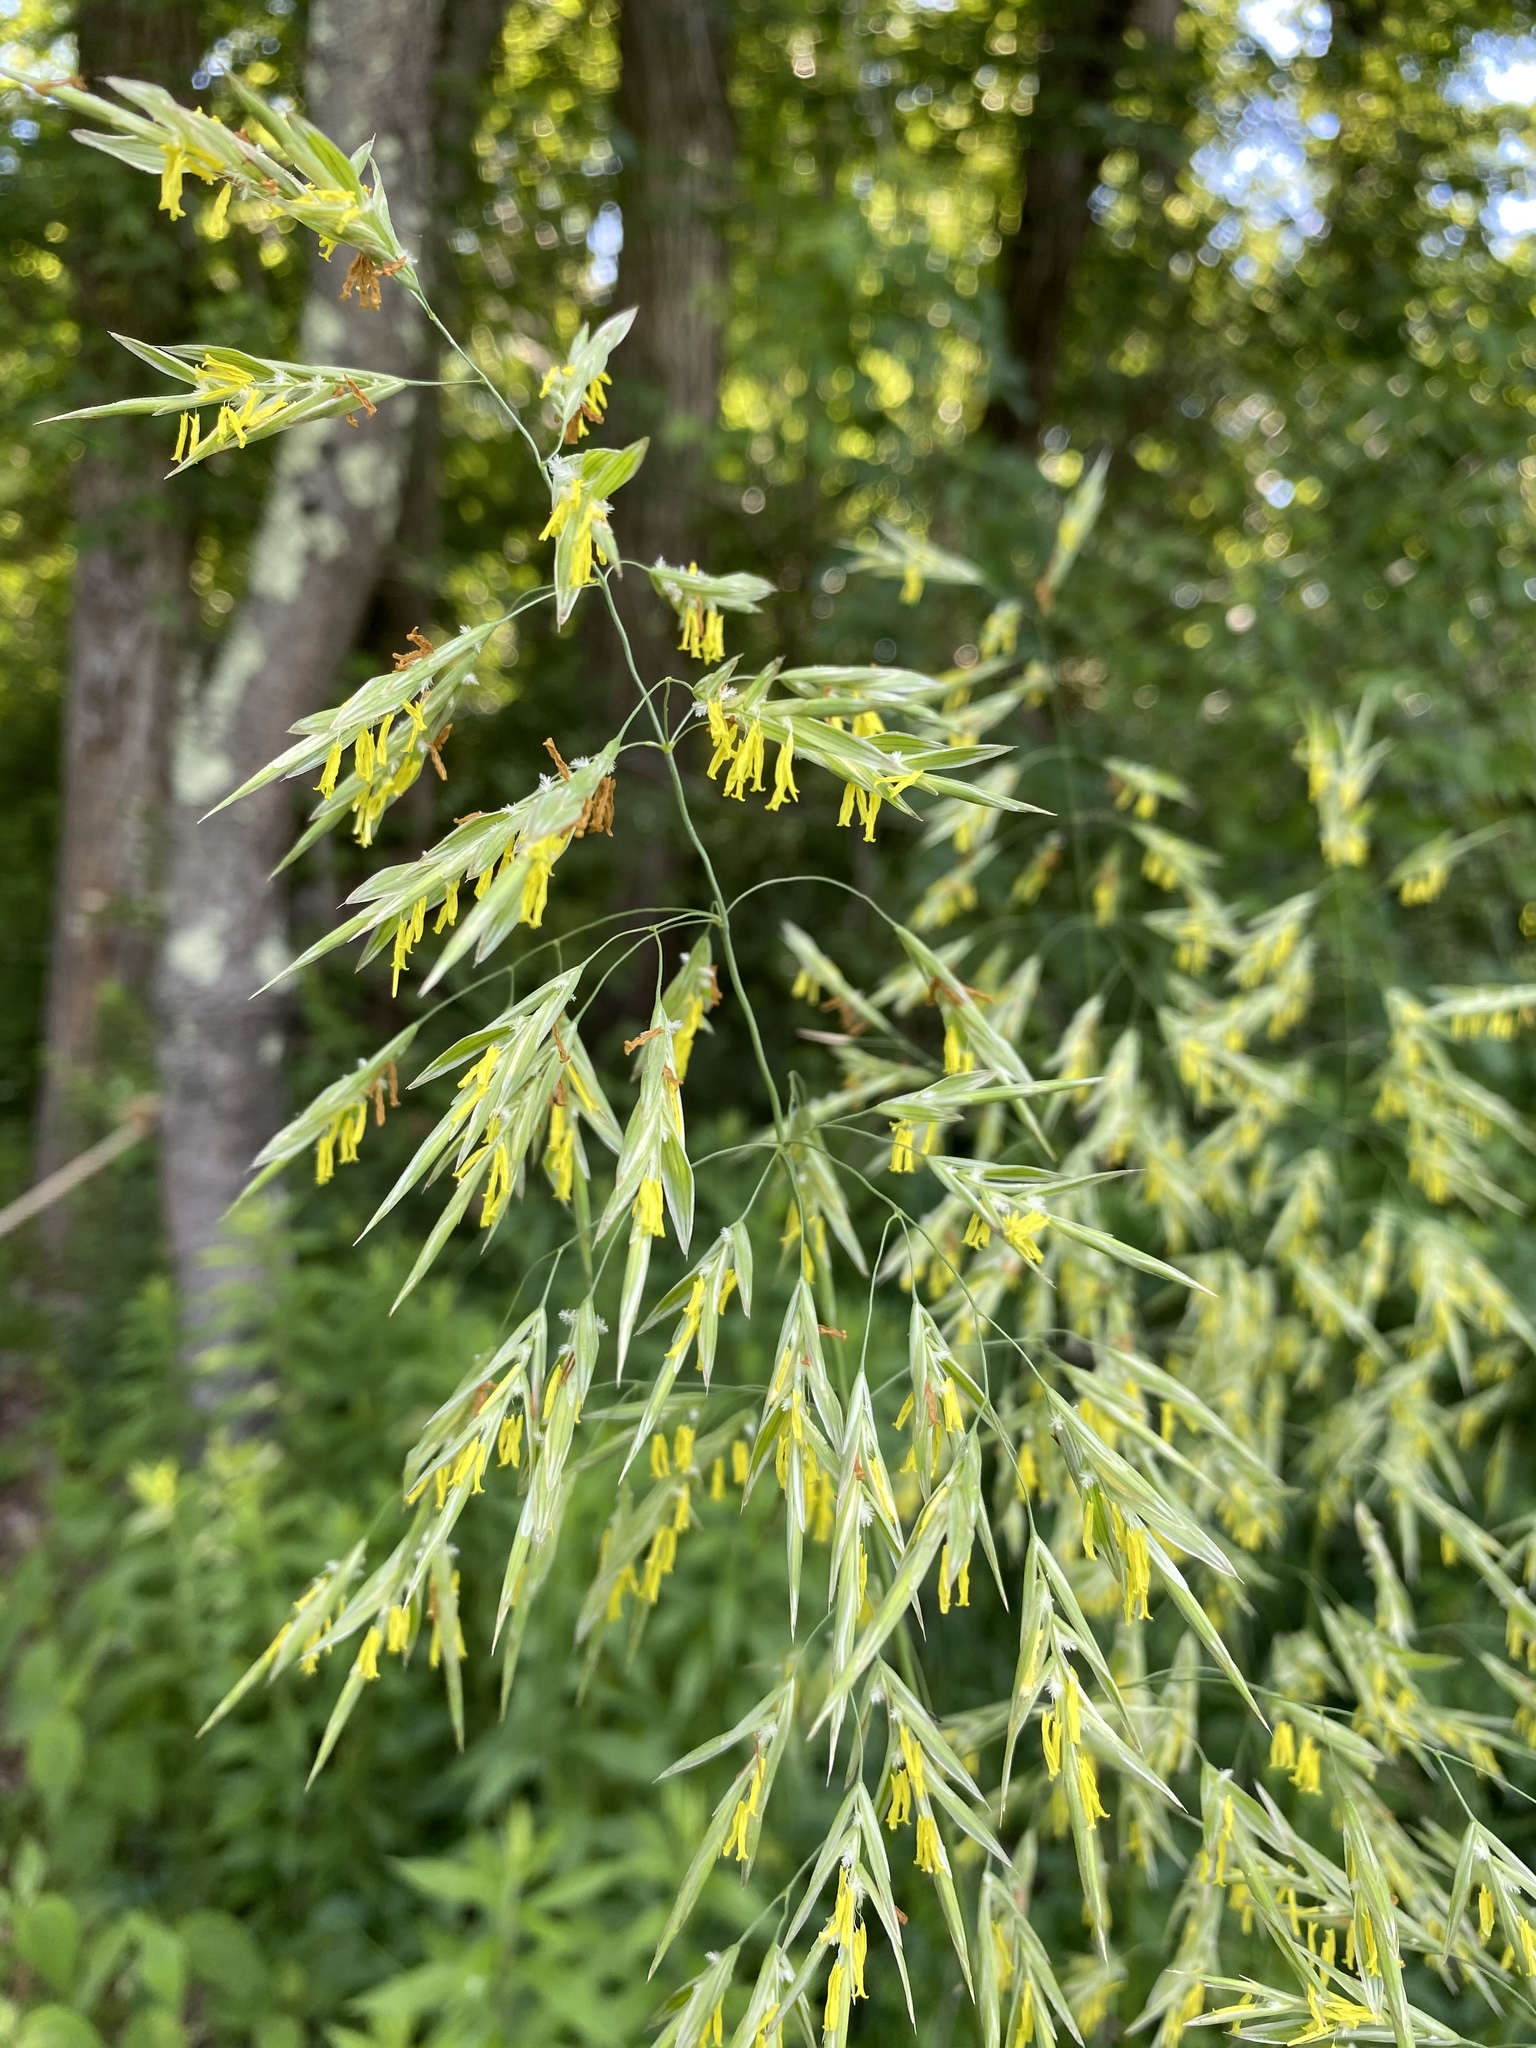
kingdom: Plantae
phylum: Tracheophyta
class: Liliopsida
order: Poales
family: Poaceae
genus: Bromus
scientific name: Bromus inermis
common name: Smooth brome
